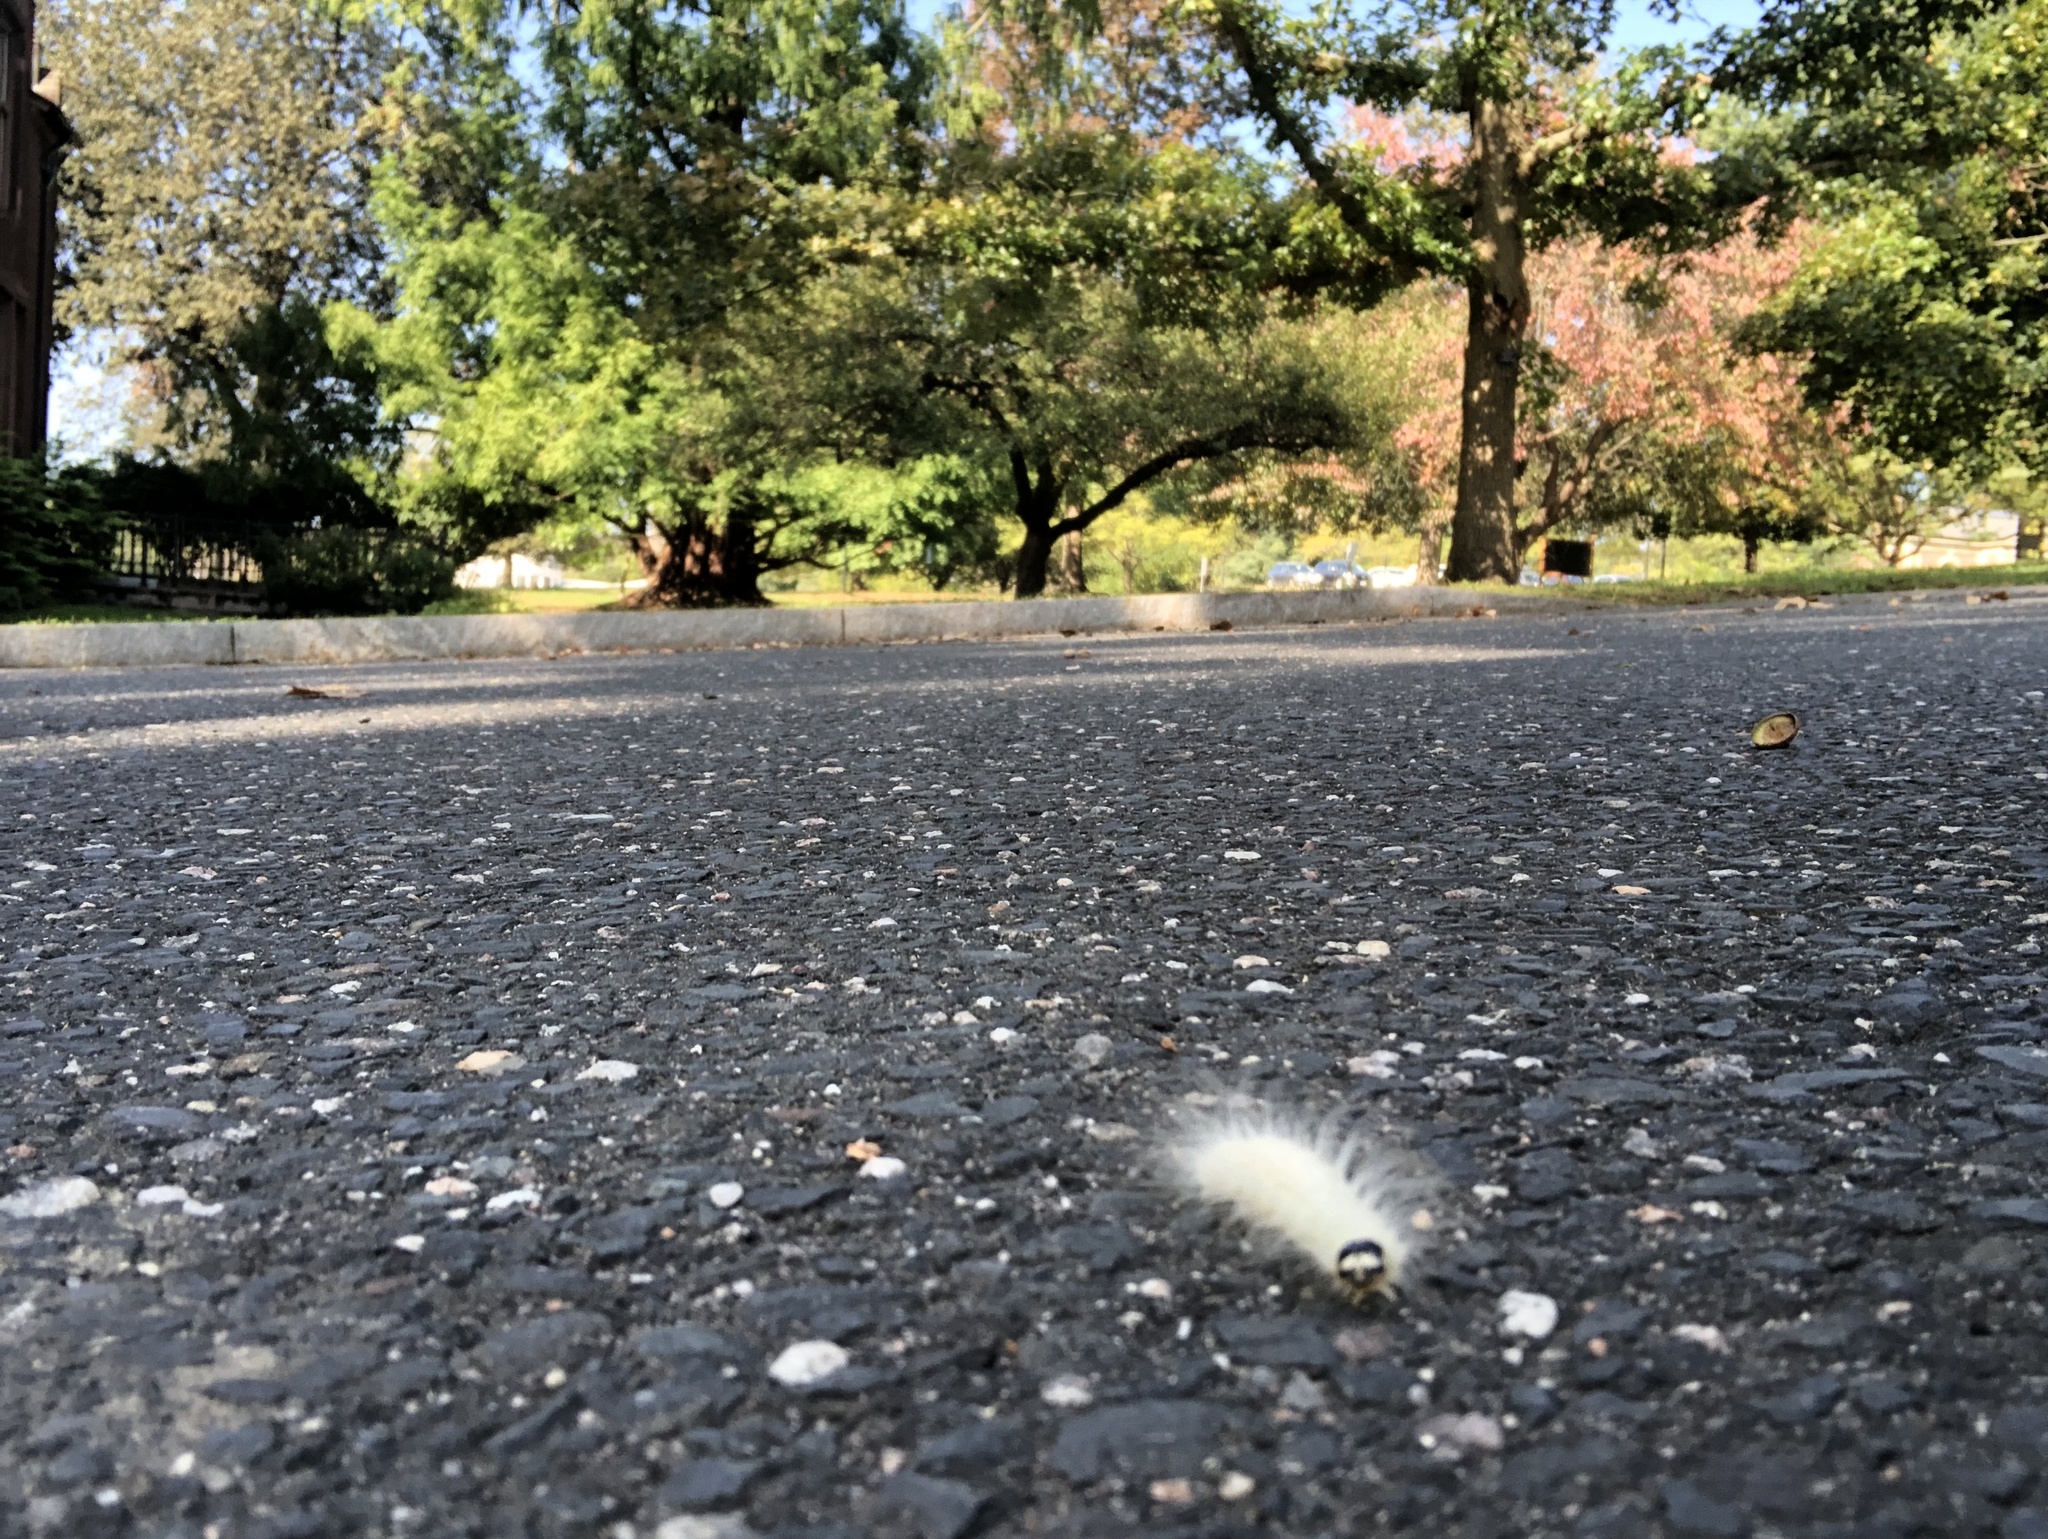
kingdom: Animalia
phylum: Arthropoda
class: Insecta
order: Lepidoptera
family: Noctuidae
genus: Charadra
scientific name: Charadra deridens
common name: Marbled tuffet
